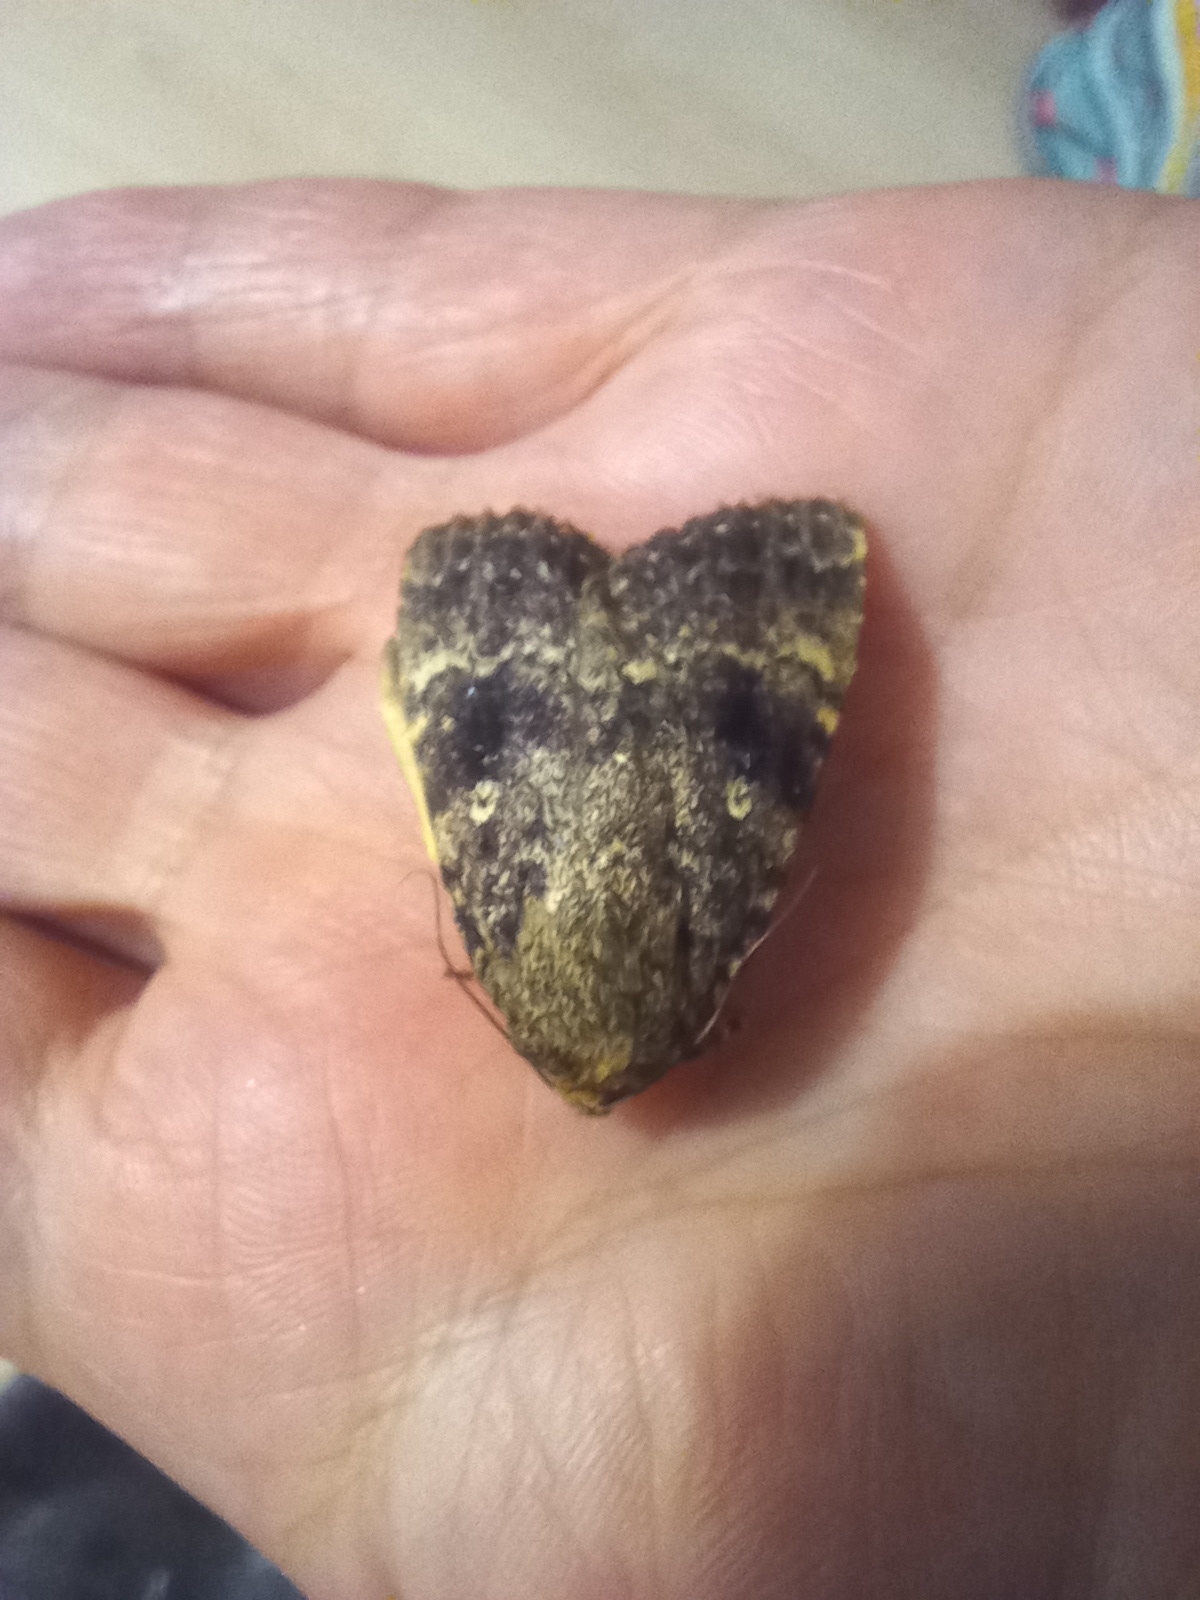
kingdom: Animalia
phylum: Arthropoda
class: Insecta
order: Lepidoptera
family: Noctuidae
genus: Amphipyra
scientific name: Amphipyra pyramidea
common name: Copper underwing
